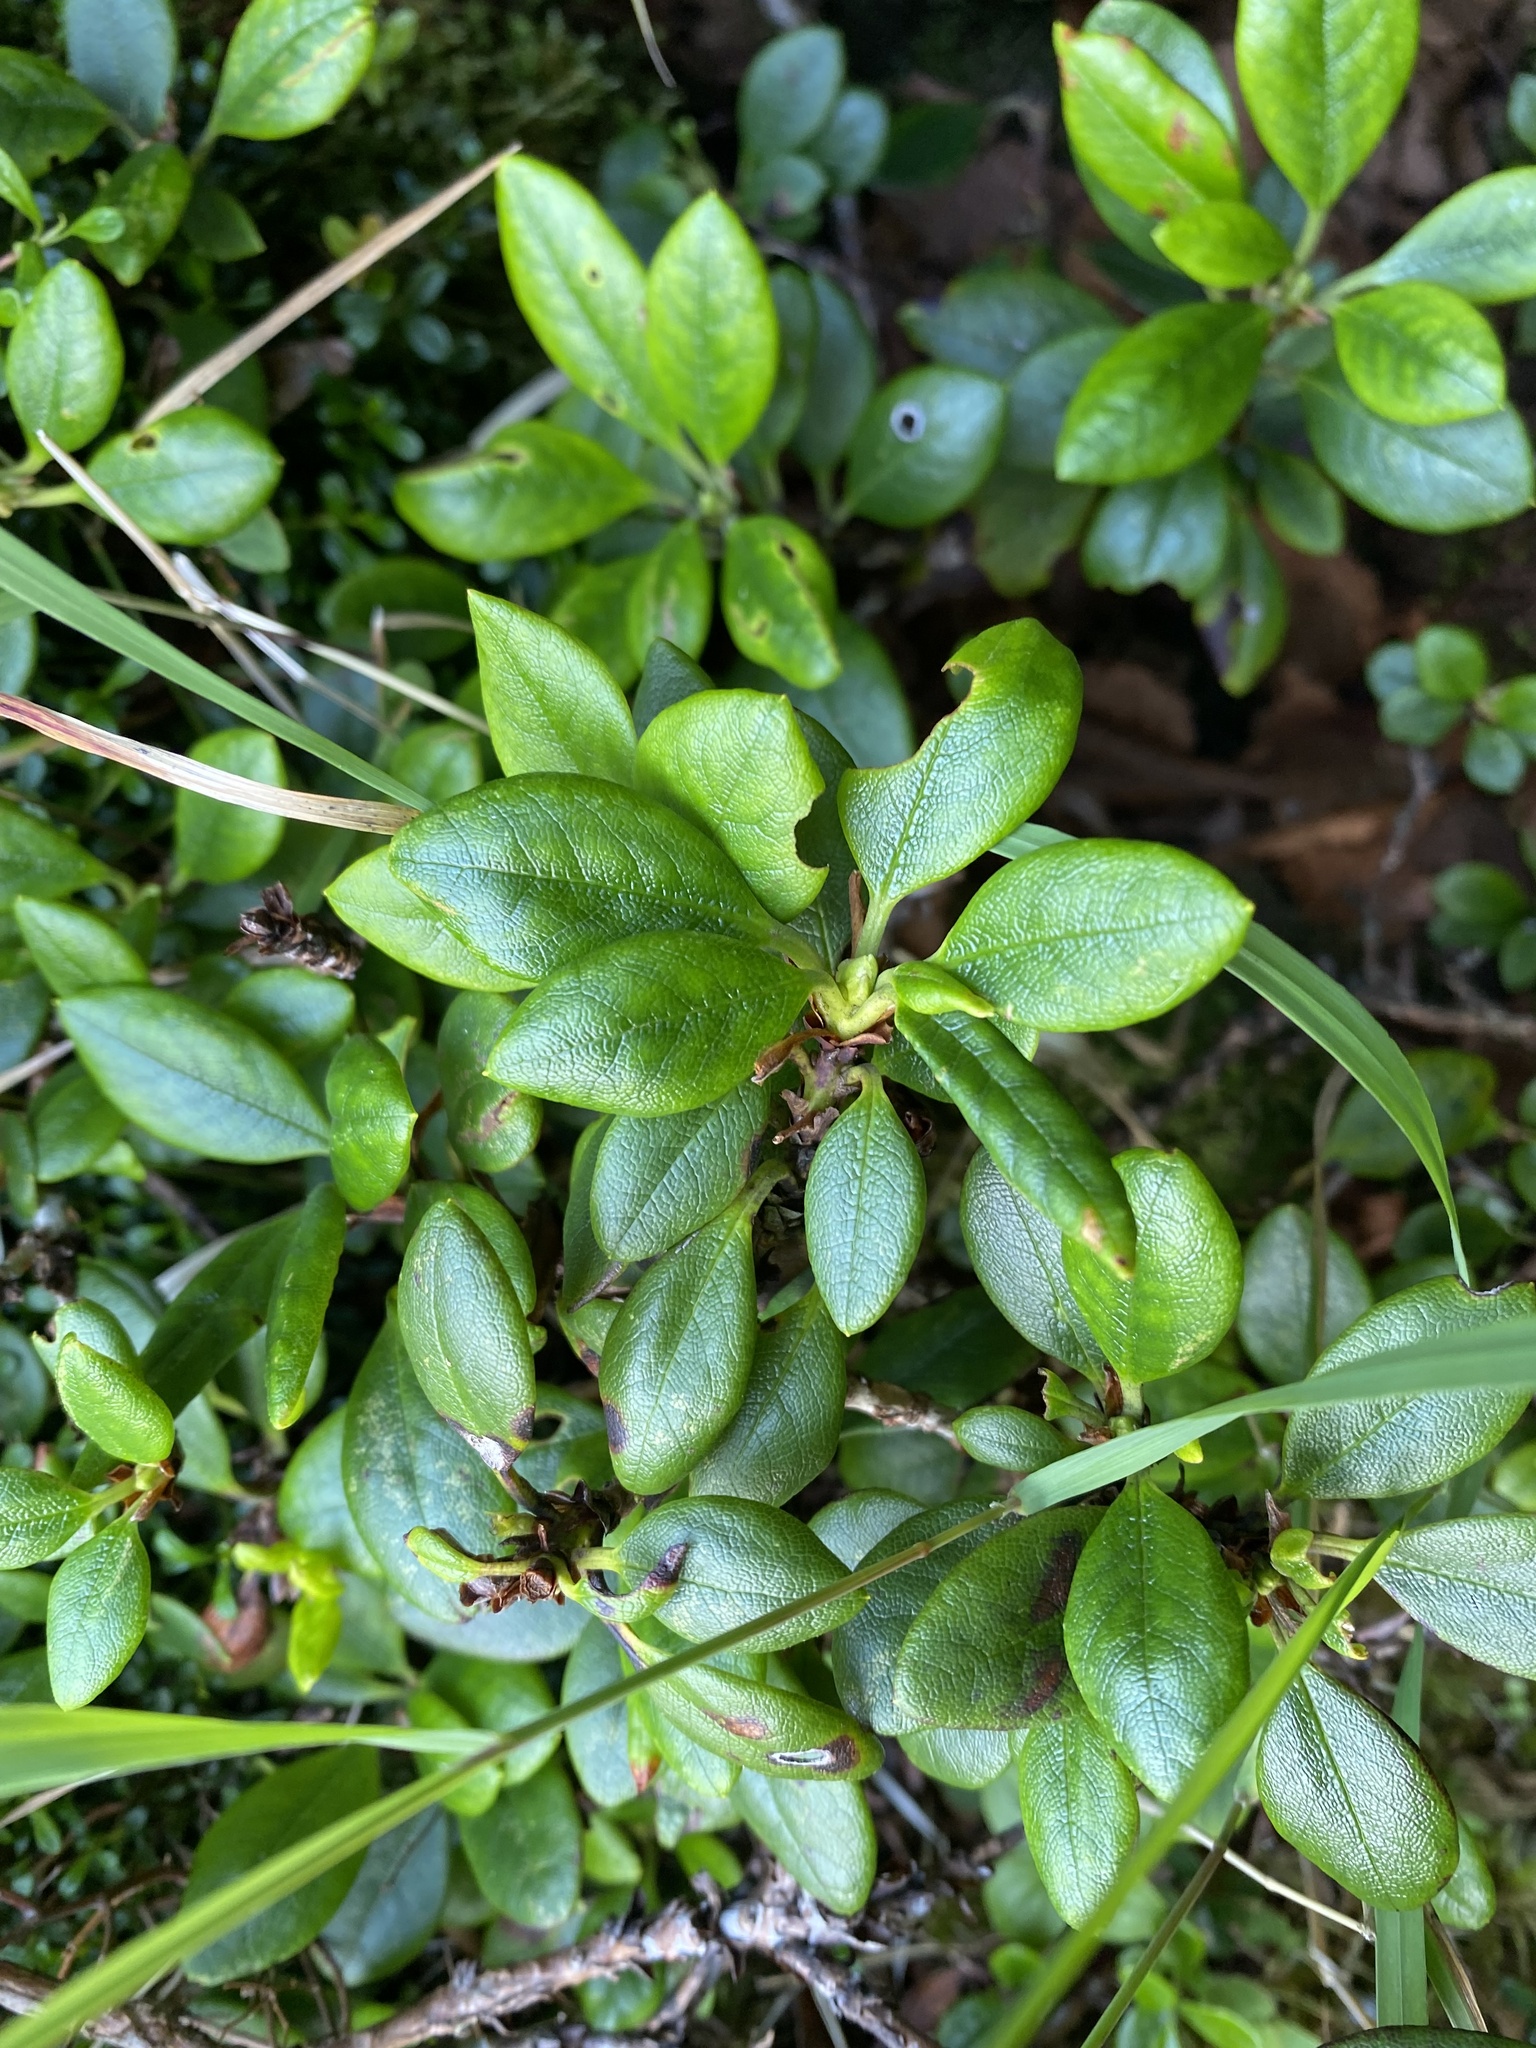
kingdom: Plantae
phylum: Tracheophyta
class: Magnoliopsida
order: Ericales
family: Ericaceae
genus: Rhododendron
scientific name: Rhododendron aureum
